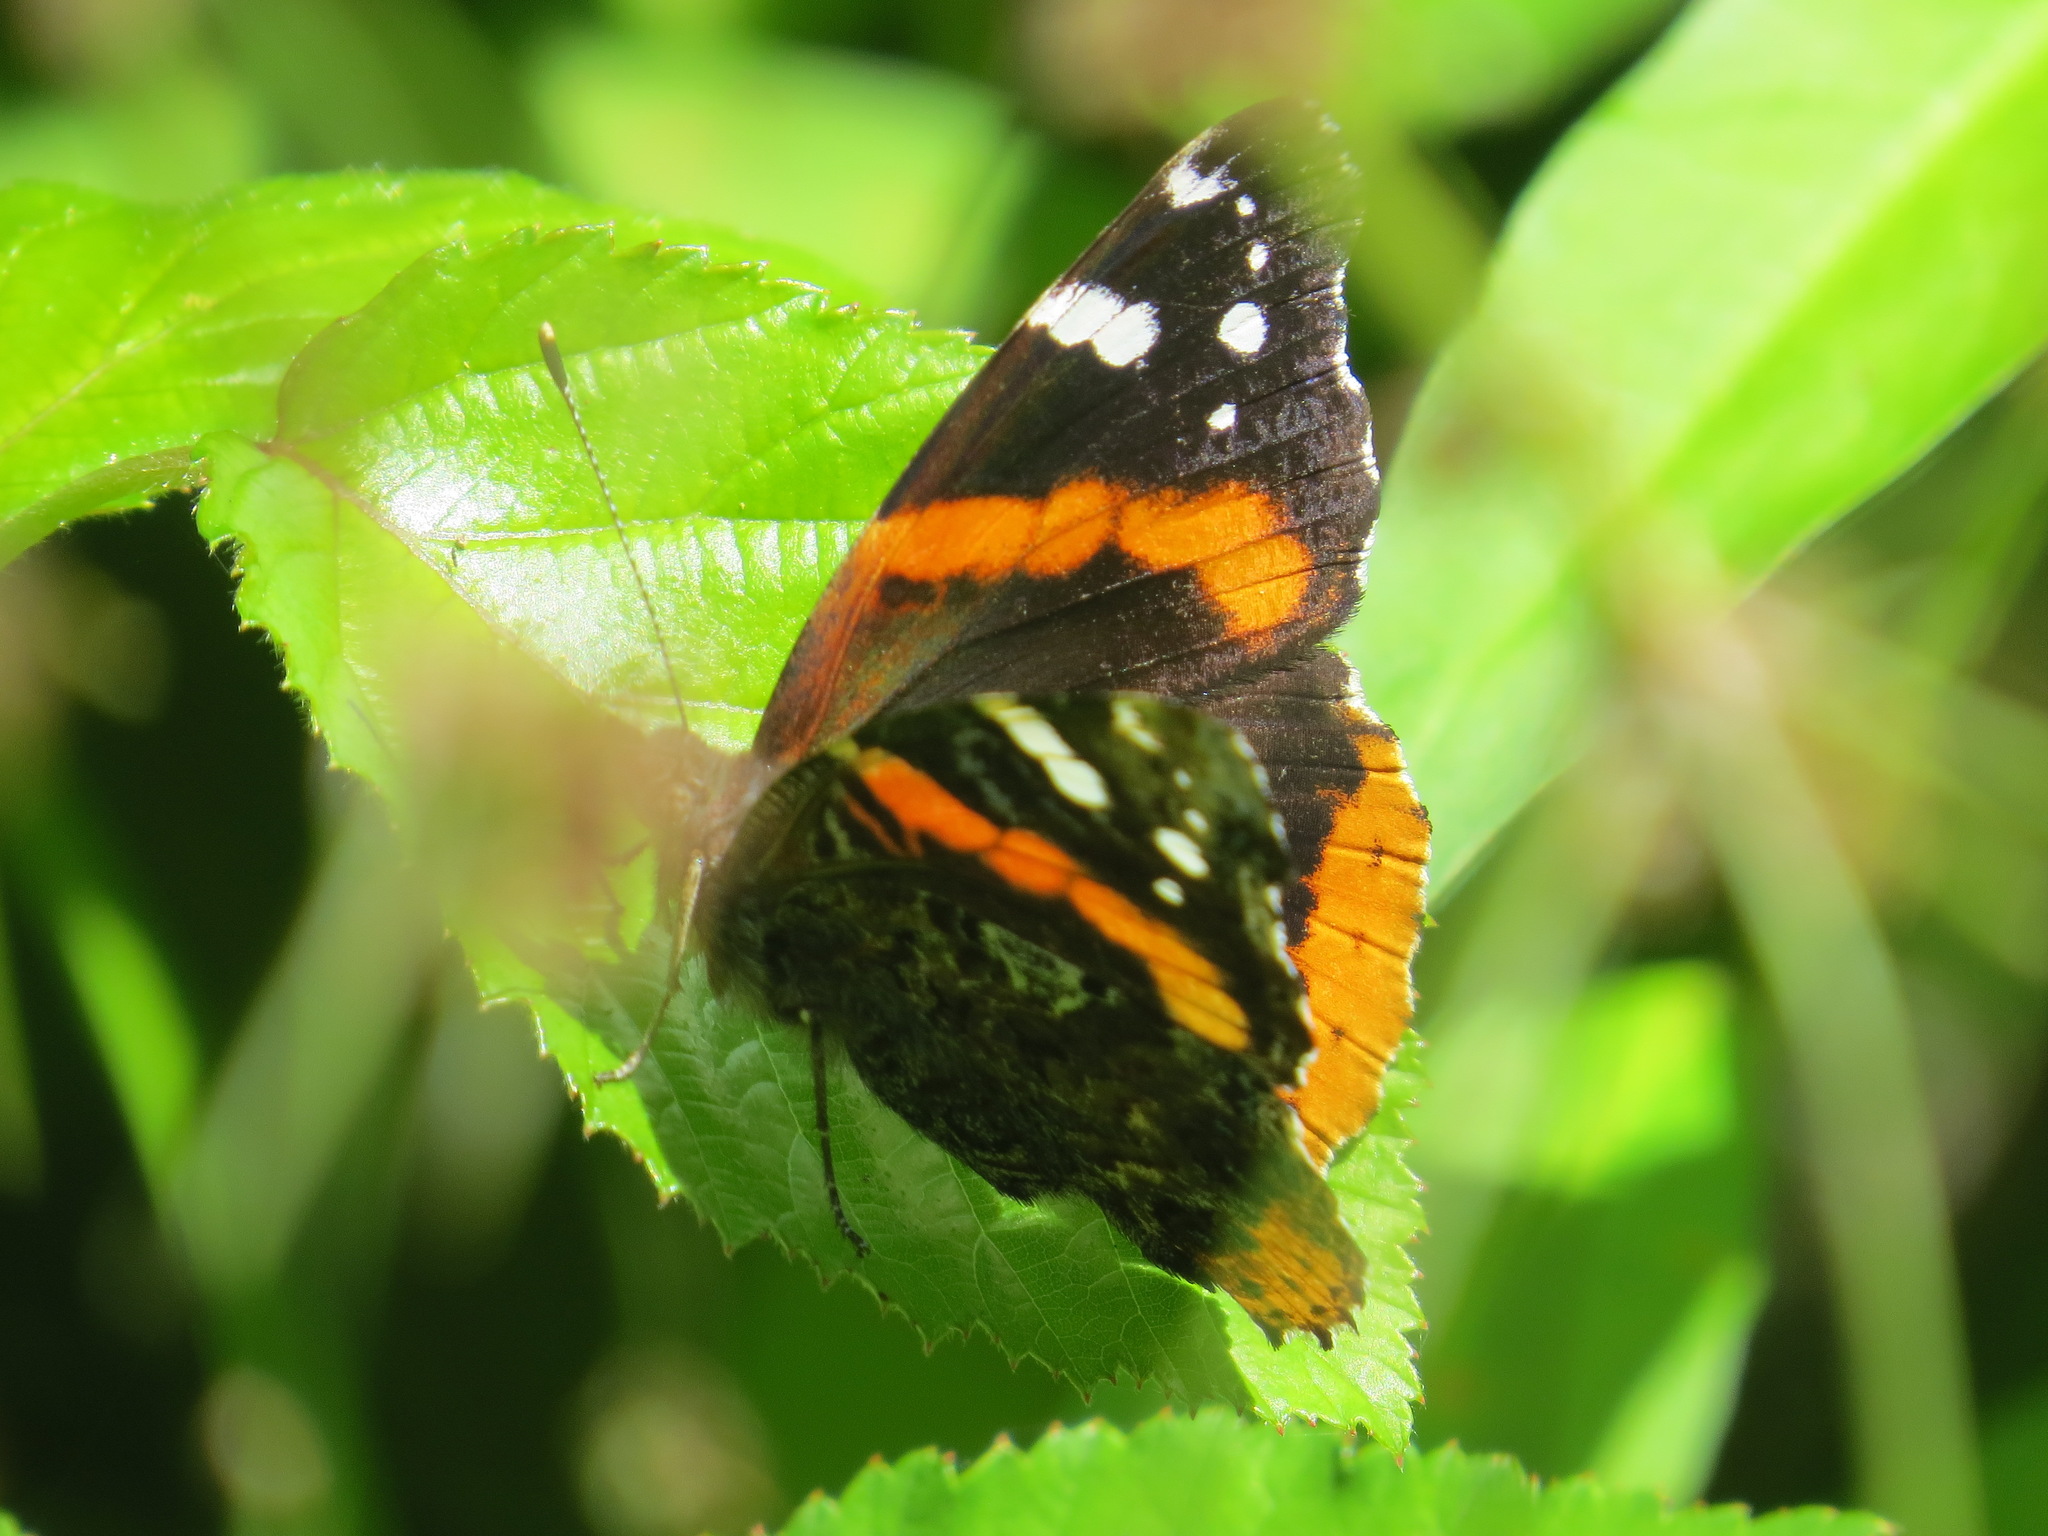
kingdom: Animalia
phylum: Arthropoda
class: Insecta
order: Lepidoptera
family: Nymphalidae
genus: Vanessa
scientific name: Vanessa atalanta
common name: Red admiral
